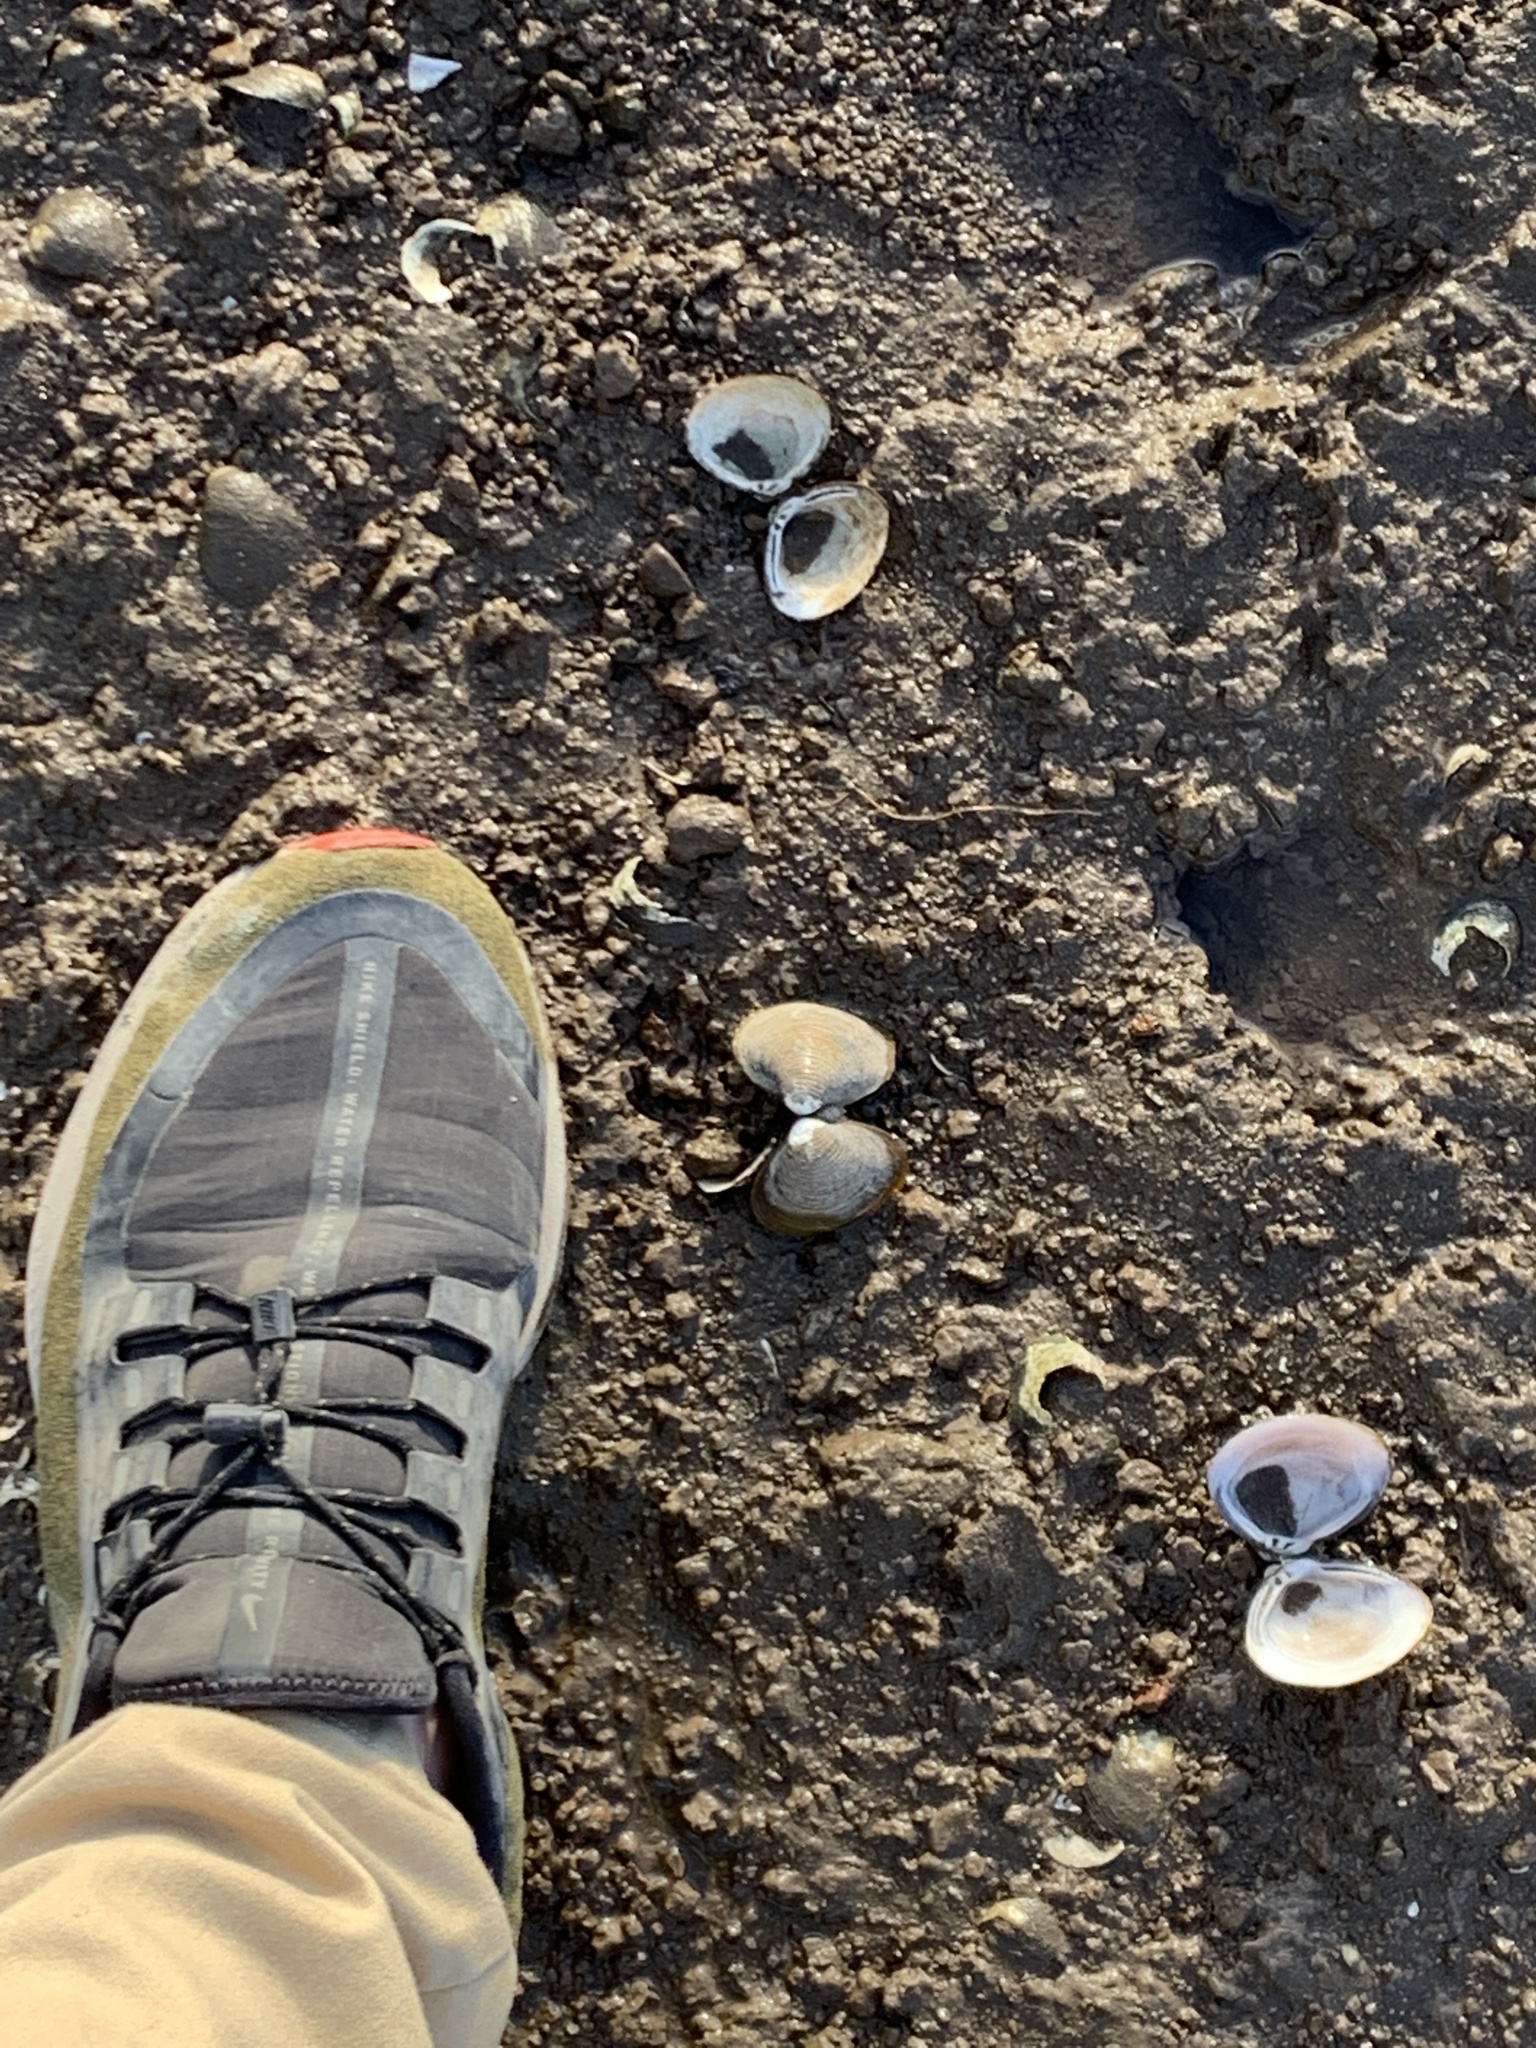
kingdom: Animalia
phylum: Mollusca
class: Bivalvia
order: Venerida
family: Cyrenidae
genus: Corbicula
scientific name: Corbicula fluminea
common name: Asian clam
